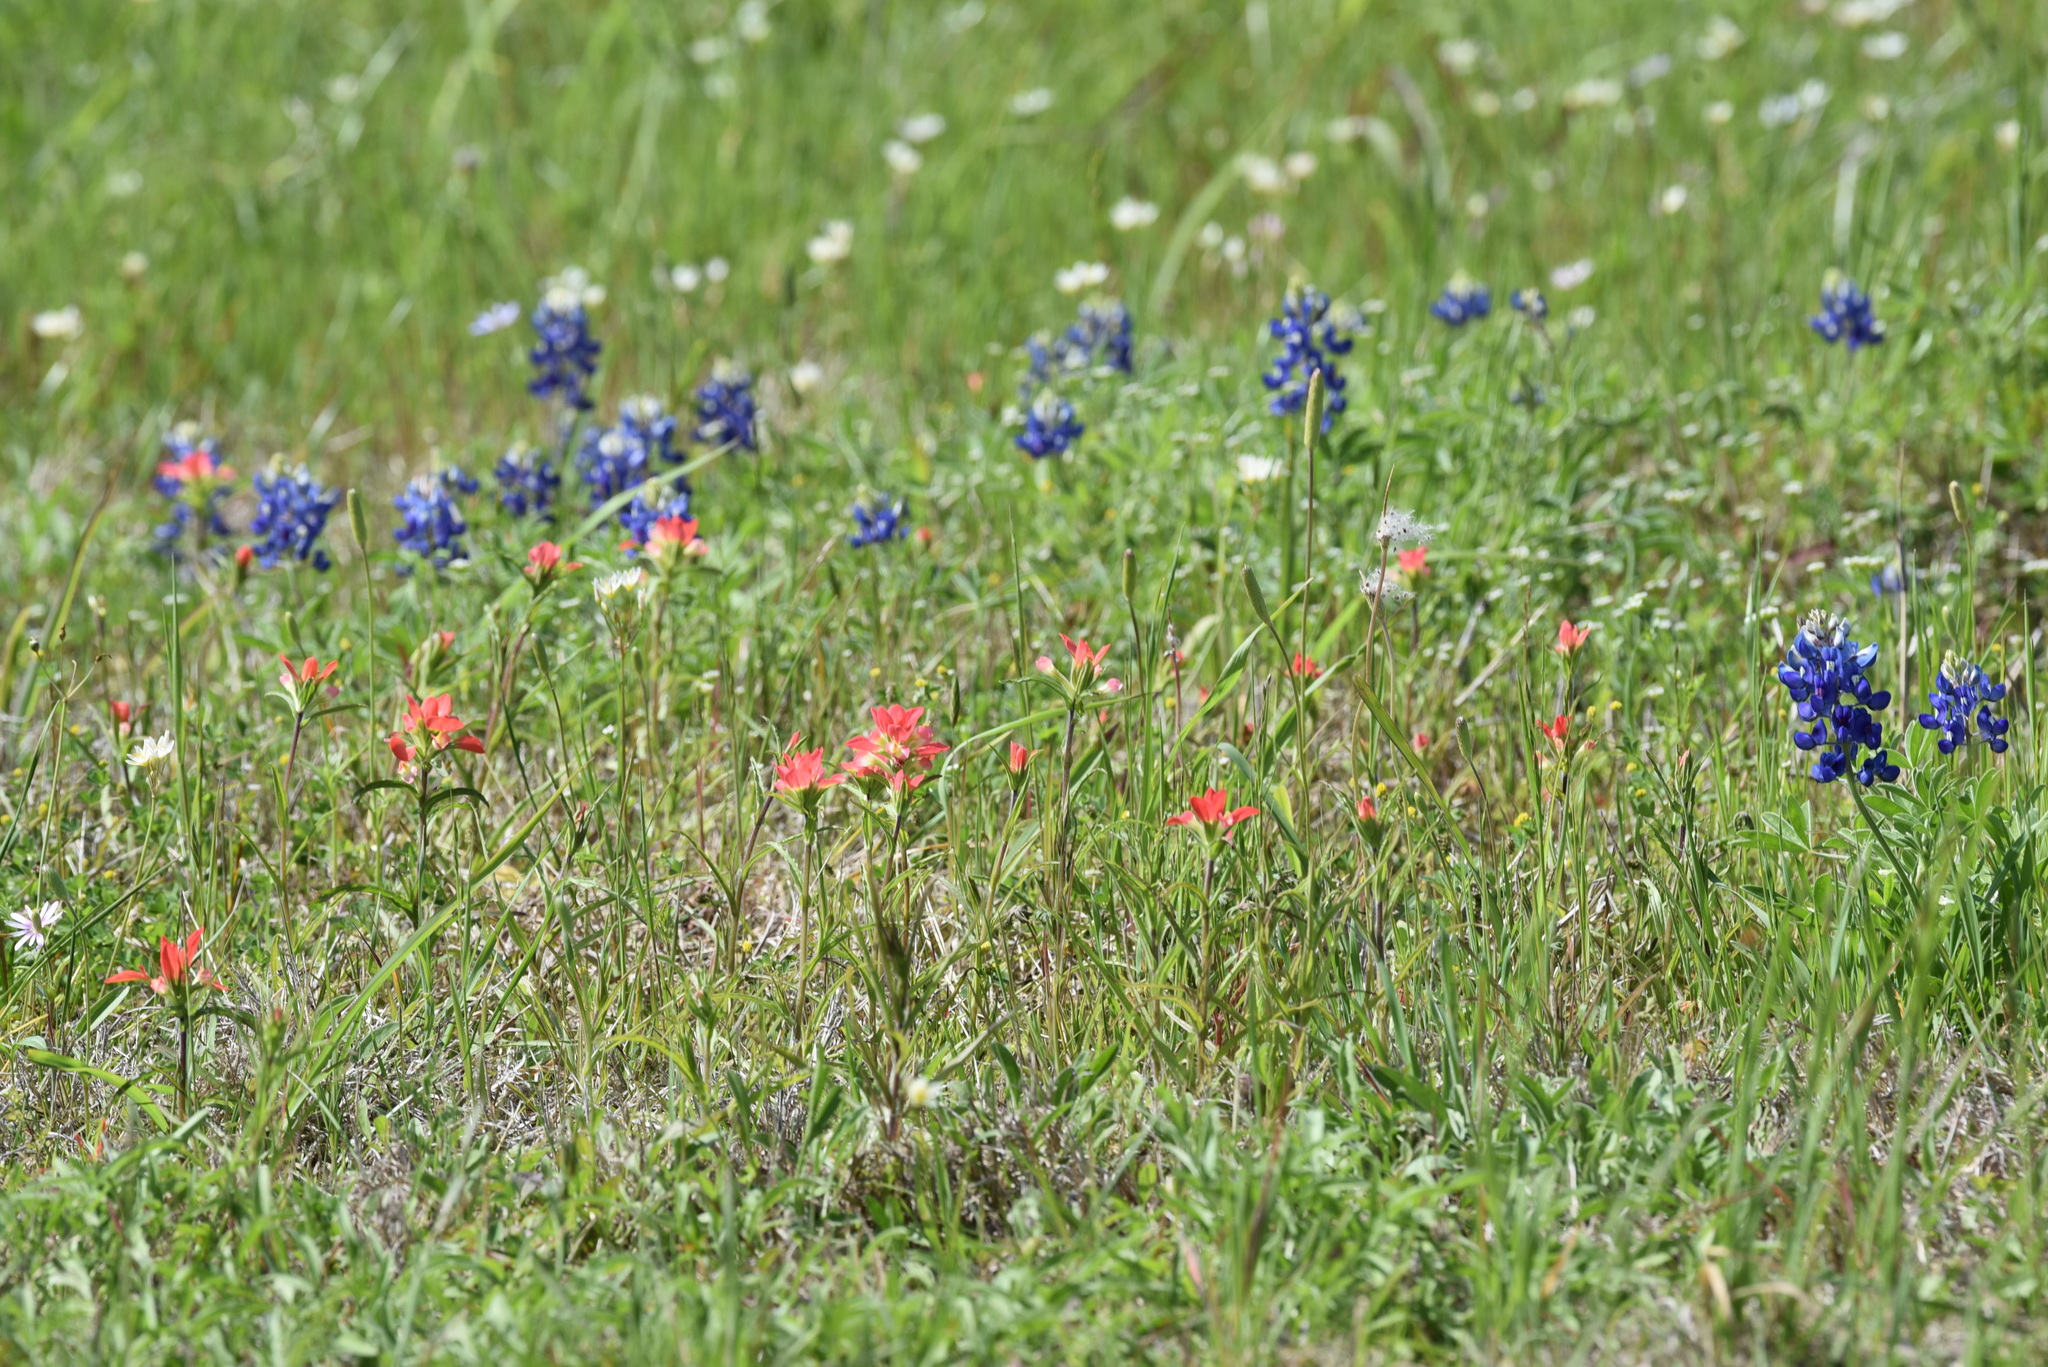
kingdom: Plantae
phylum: Tracheophyta
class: Magnoliopsida
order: Lamiales
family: Orobanchaceae
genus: Castilleja
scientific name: Castilleja indivisa
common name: Texas paintbrush
